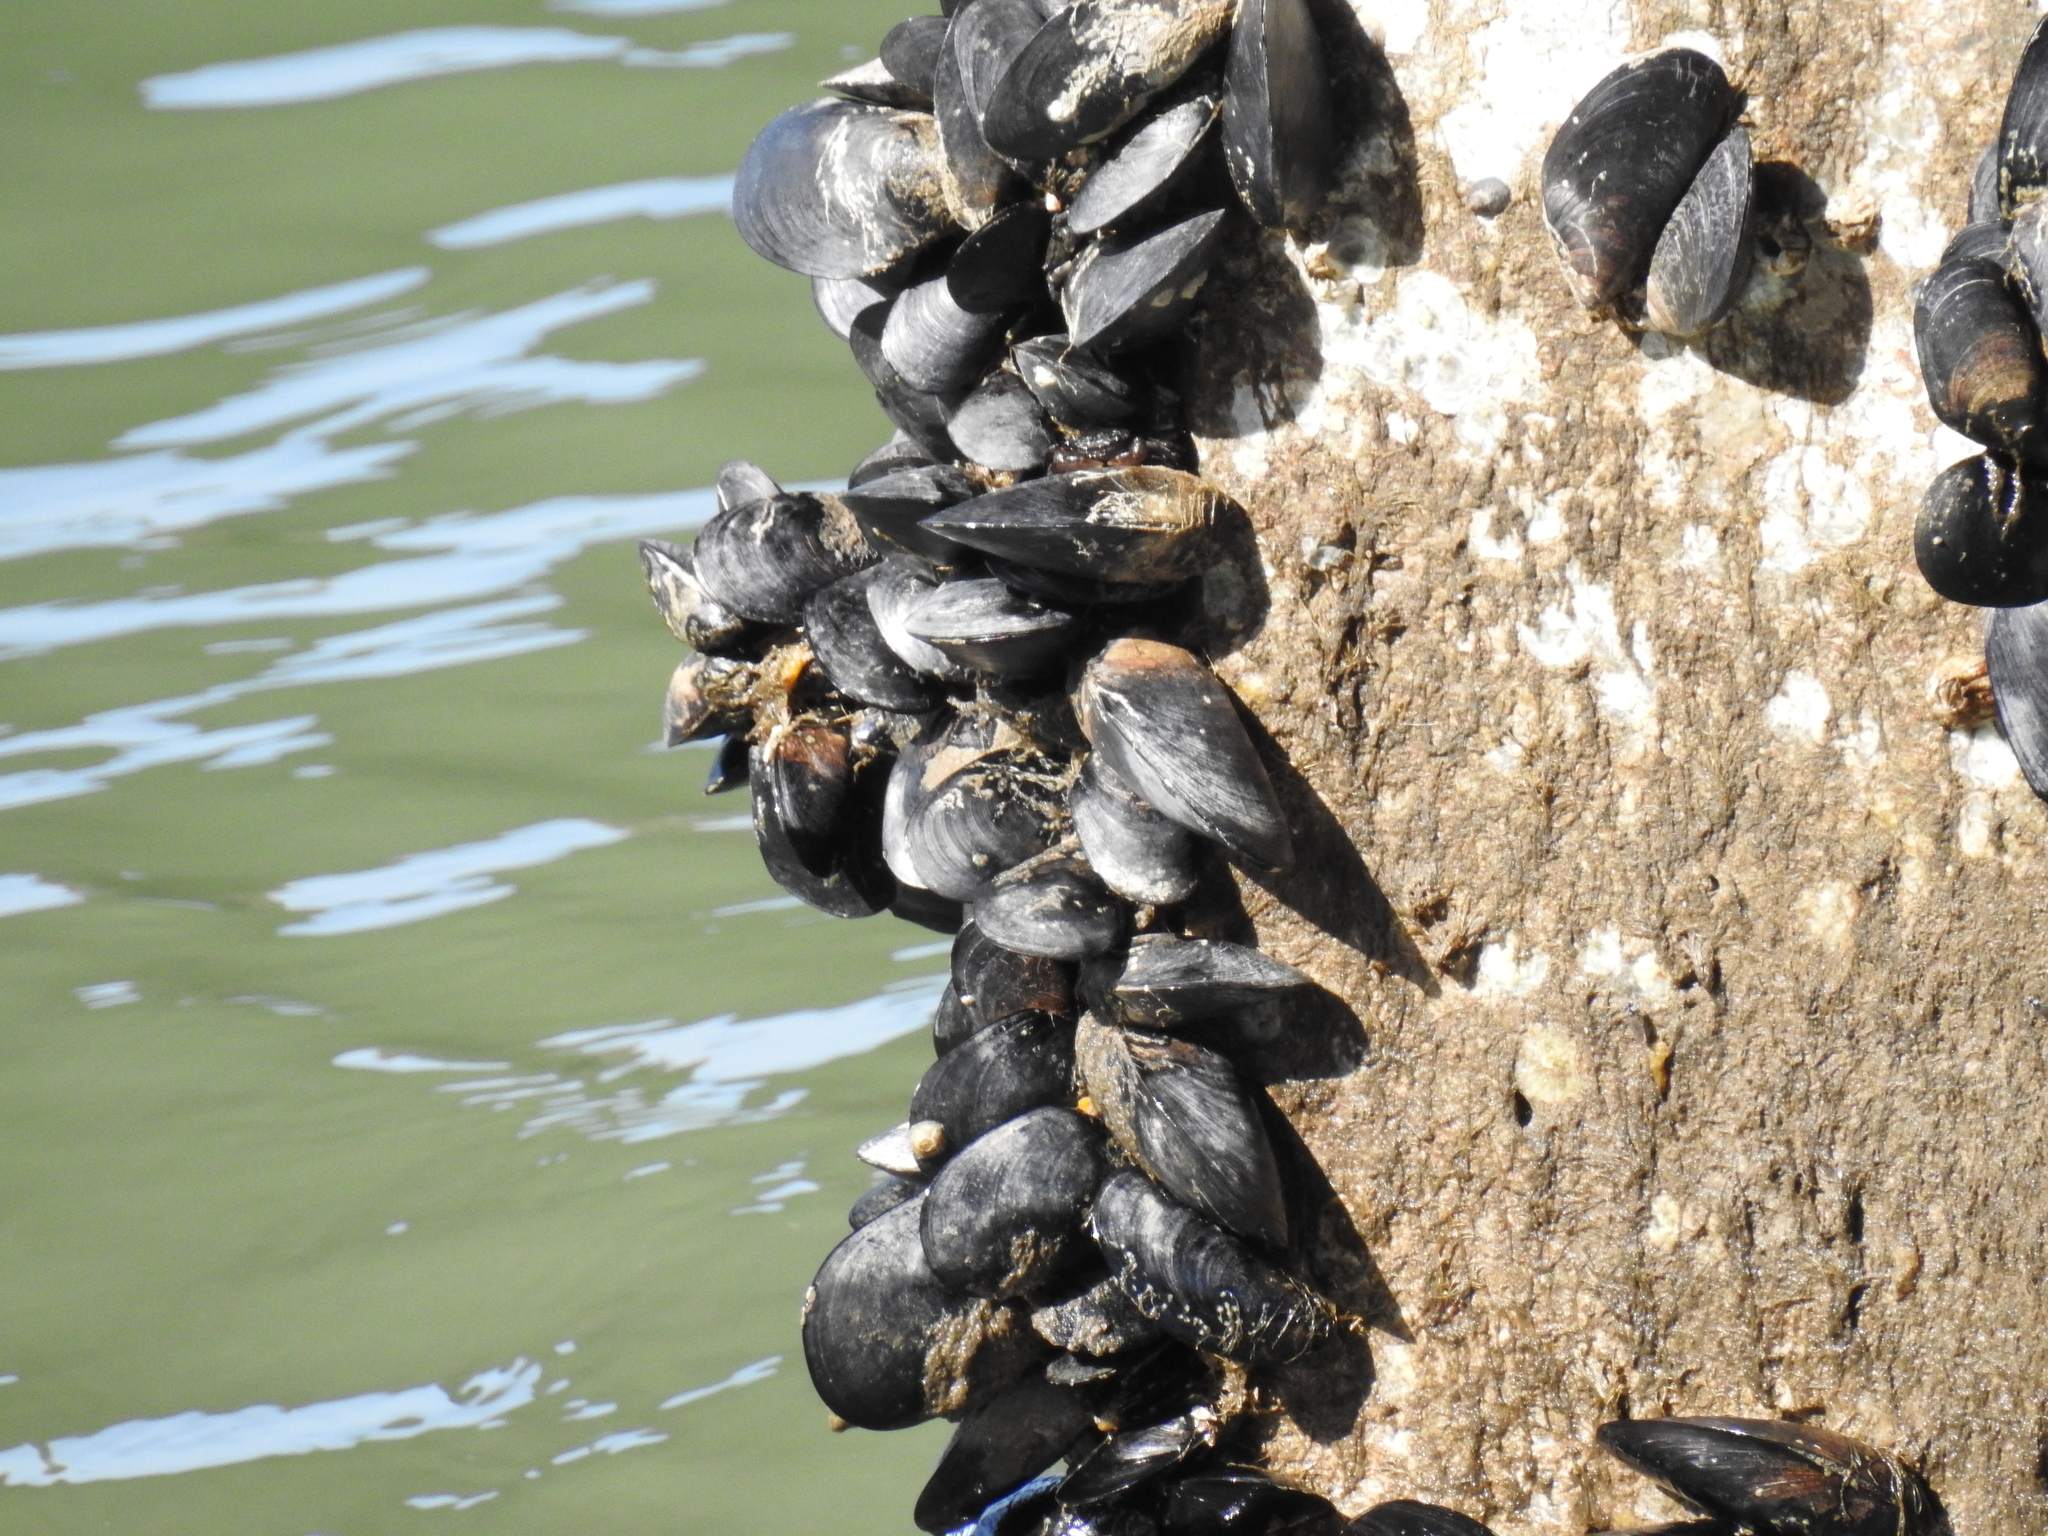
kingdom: Animalia
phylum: Mollusca
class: Bivalvia
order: Mytilida
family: Mytilidae
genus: Mytilus
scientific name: Mytilus
